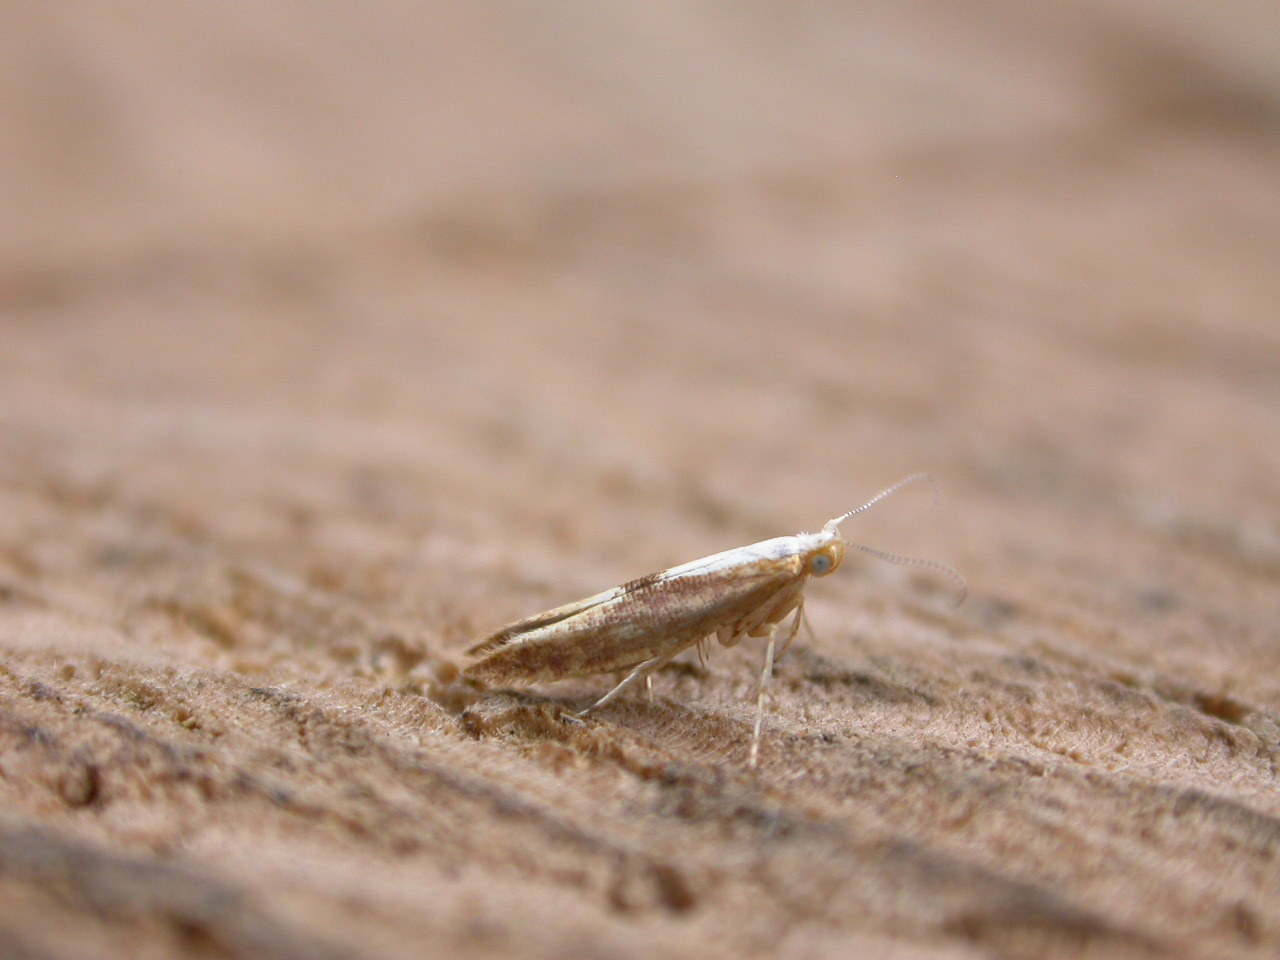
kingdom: Animalia
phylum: Arthropoda
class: Insecta
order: Lepidoptera
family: Argyresthiidae
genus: Argyresthia
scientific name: Argyresthia albistria
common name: Purple argent
